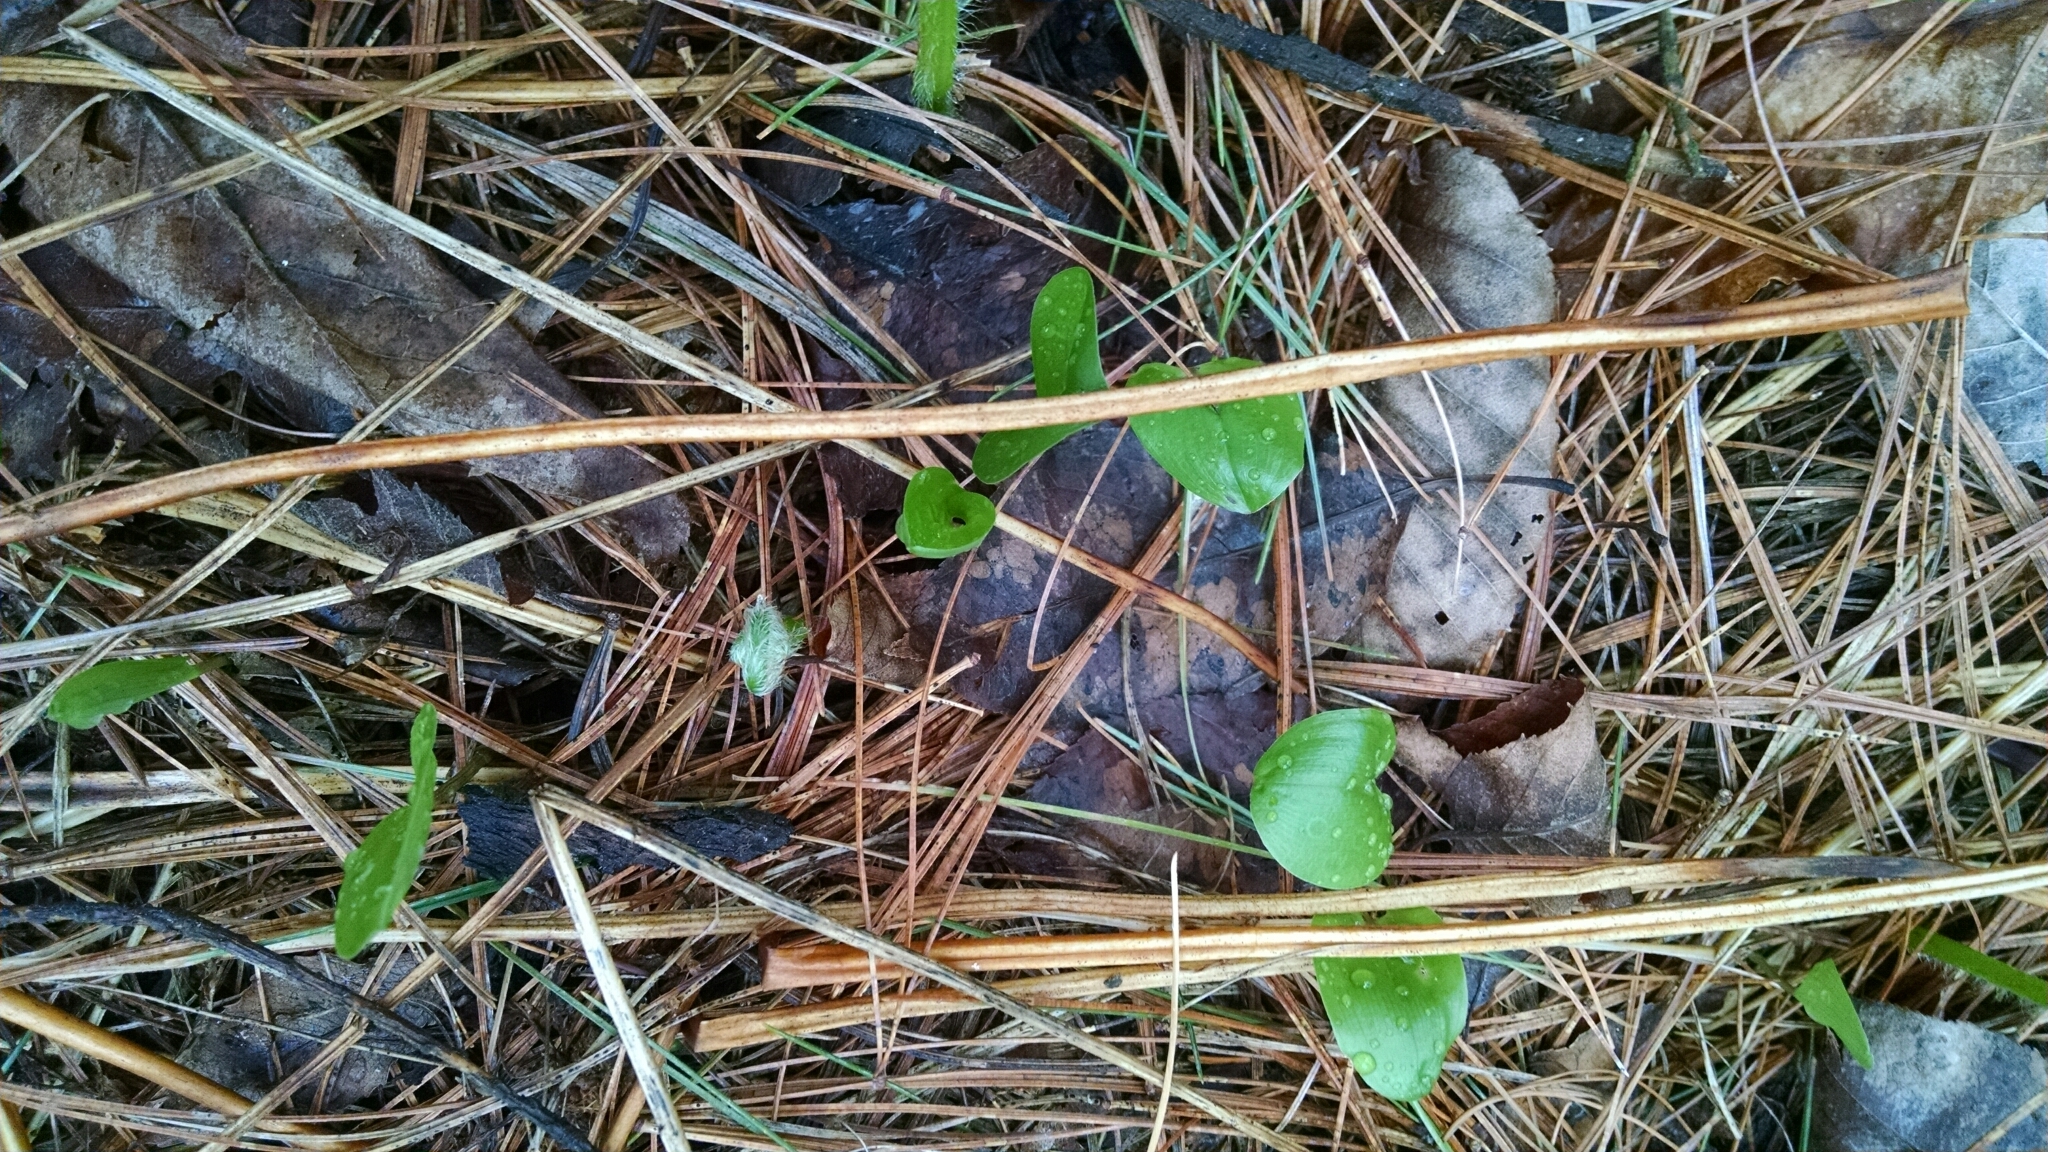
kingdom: Plantae
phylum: Tracheophyta
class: Liliopsida
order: Asparagales
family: Asparagaceae
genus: Maianthemum
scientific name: Maianthemum canadense
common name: False lily-of-the-valley
